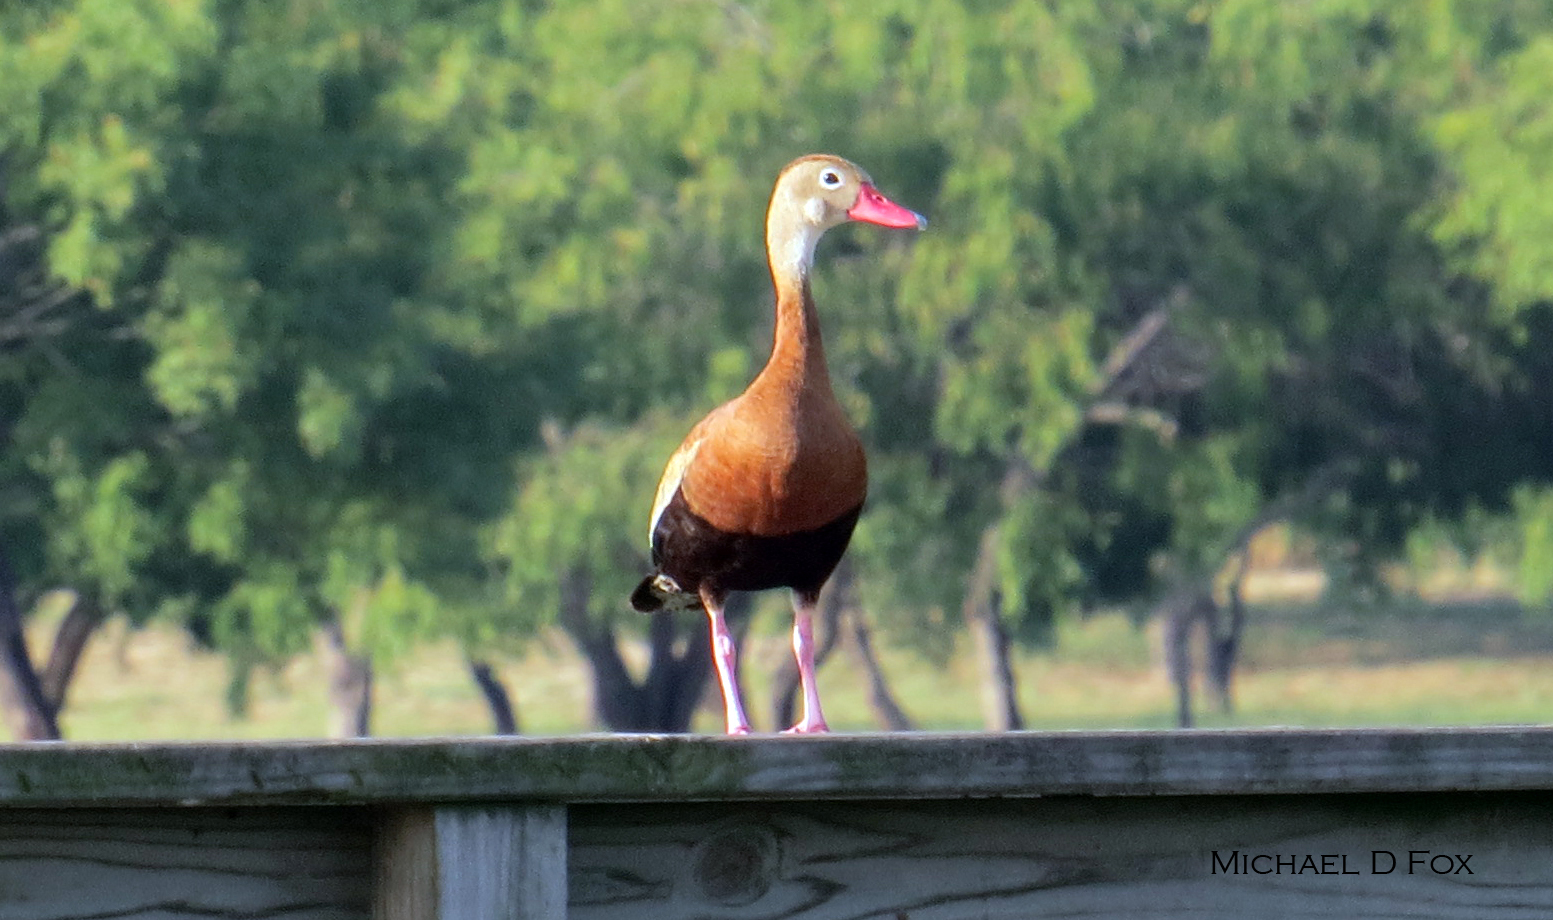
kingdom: Animalia
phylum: Chordata
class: Aves
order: Anseriformes
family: Anatidae
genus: Dendrocygna
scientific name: Dendrocygna autumnalis
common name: Black-bellied whistling duck
